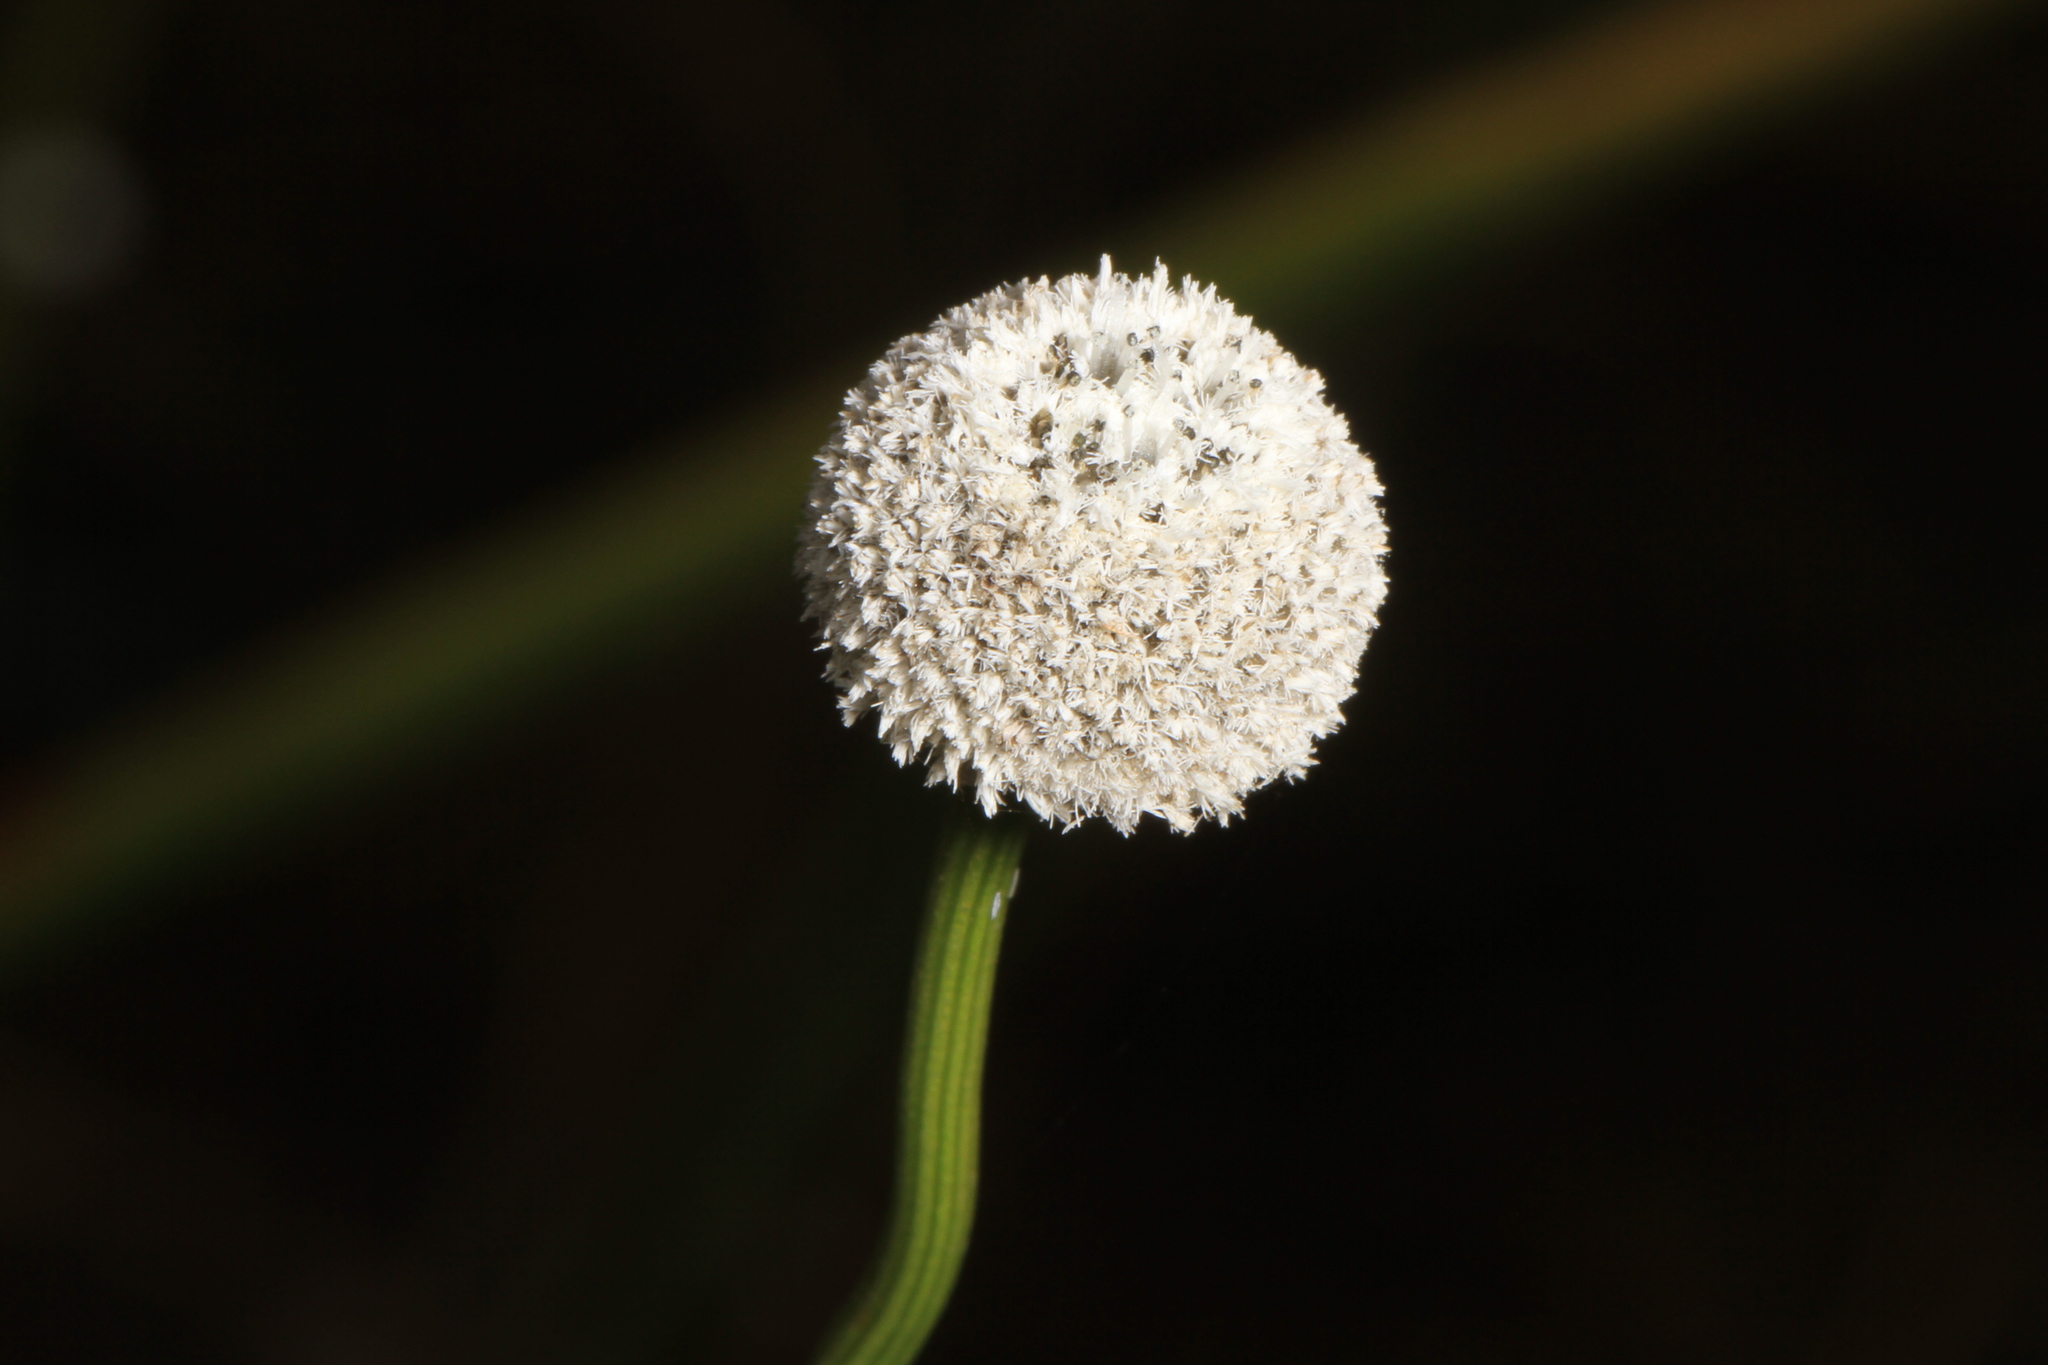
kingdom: Plantae
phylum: Tracheophyta
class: Liliopsida
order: Poales
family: Eriocaulaceae
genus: Eriocaulon
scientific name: Eriocaulon decangulare
